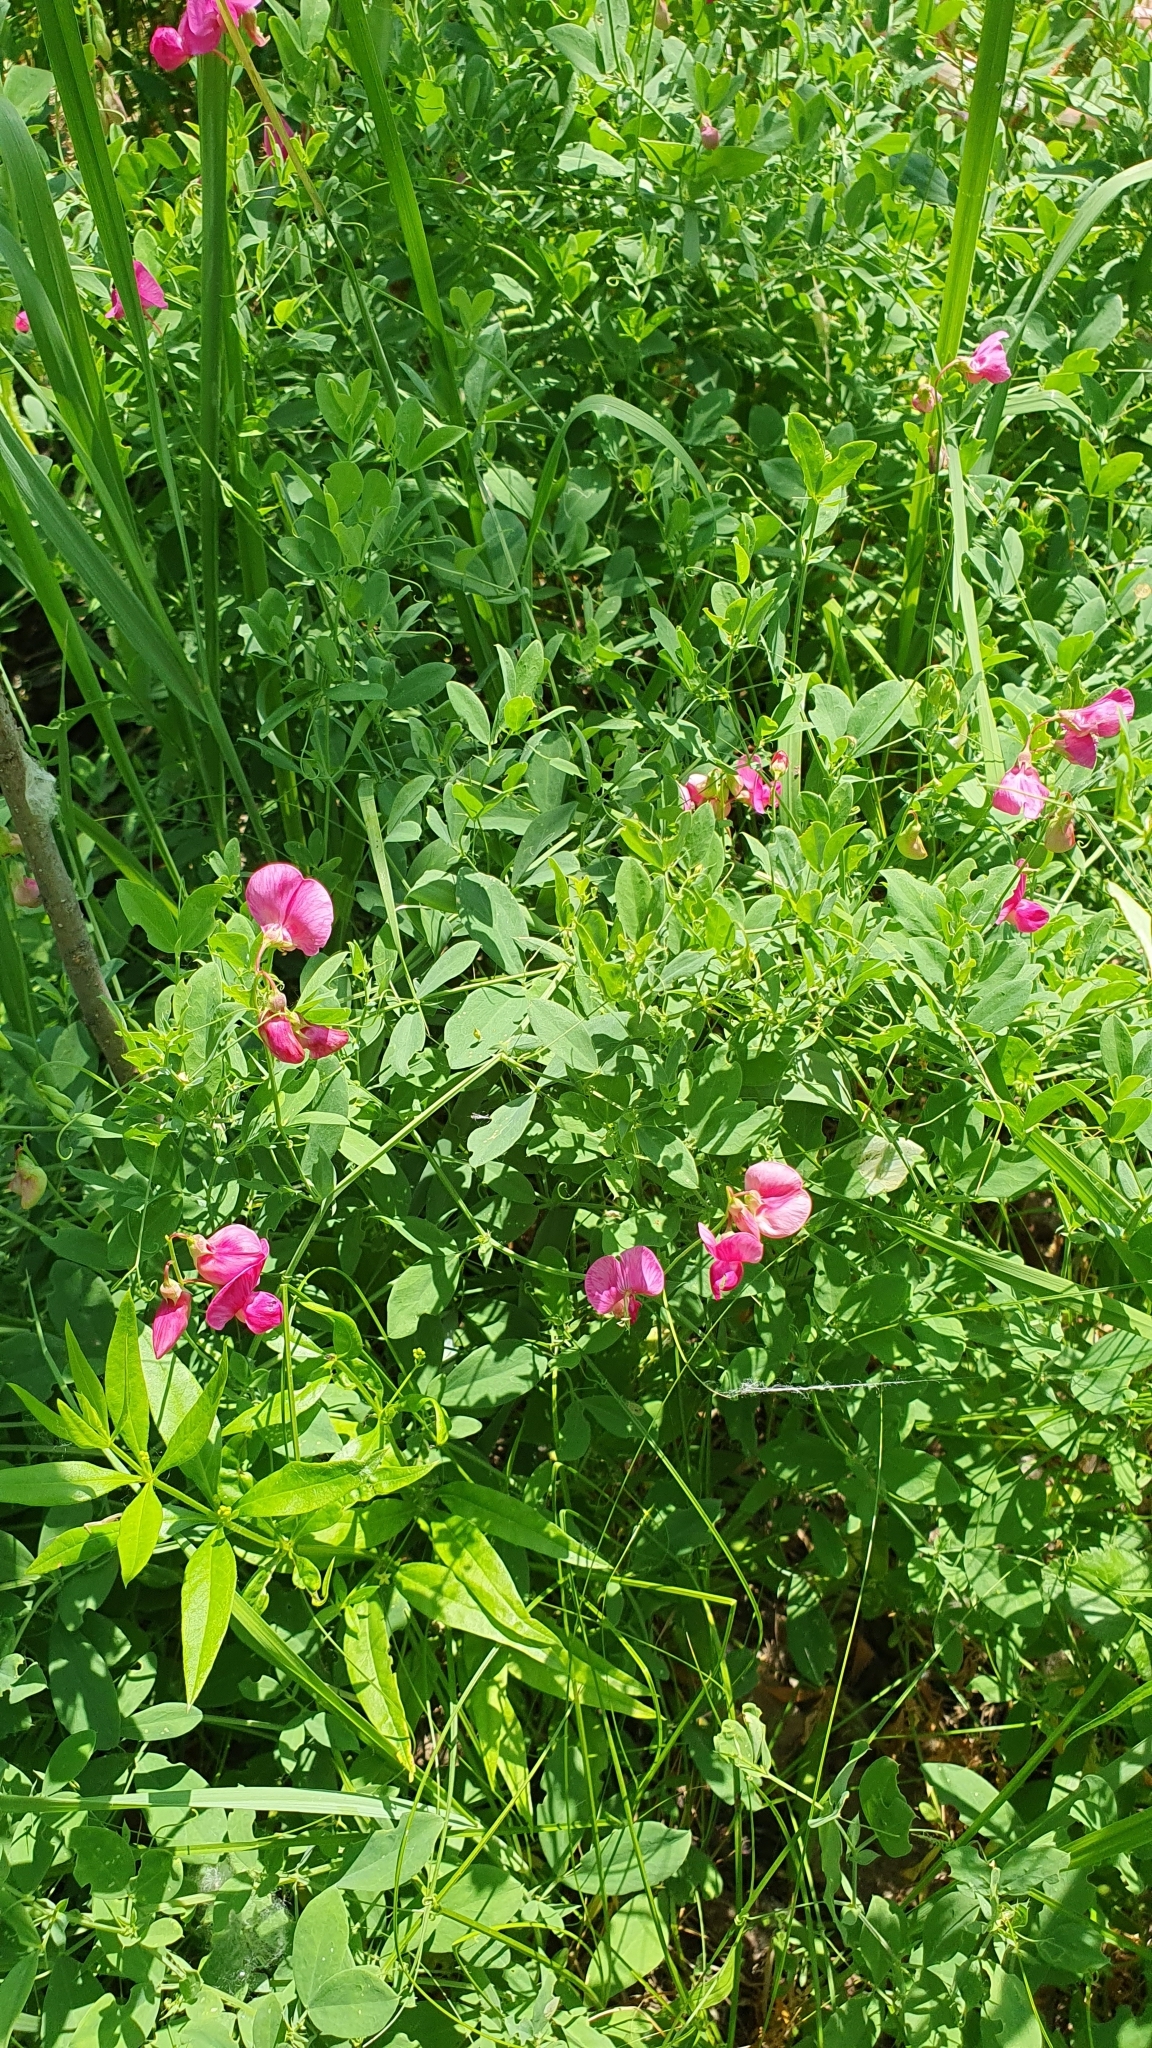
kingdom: Plantae
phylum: Tracheophyta
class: Magnoliopsida
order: Fabales
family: Fabaceae
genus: Lathyrus
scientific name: Lathyrus tuberosus
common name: Tuberous pea
